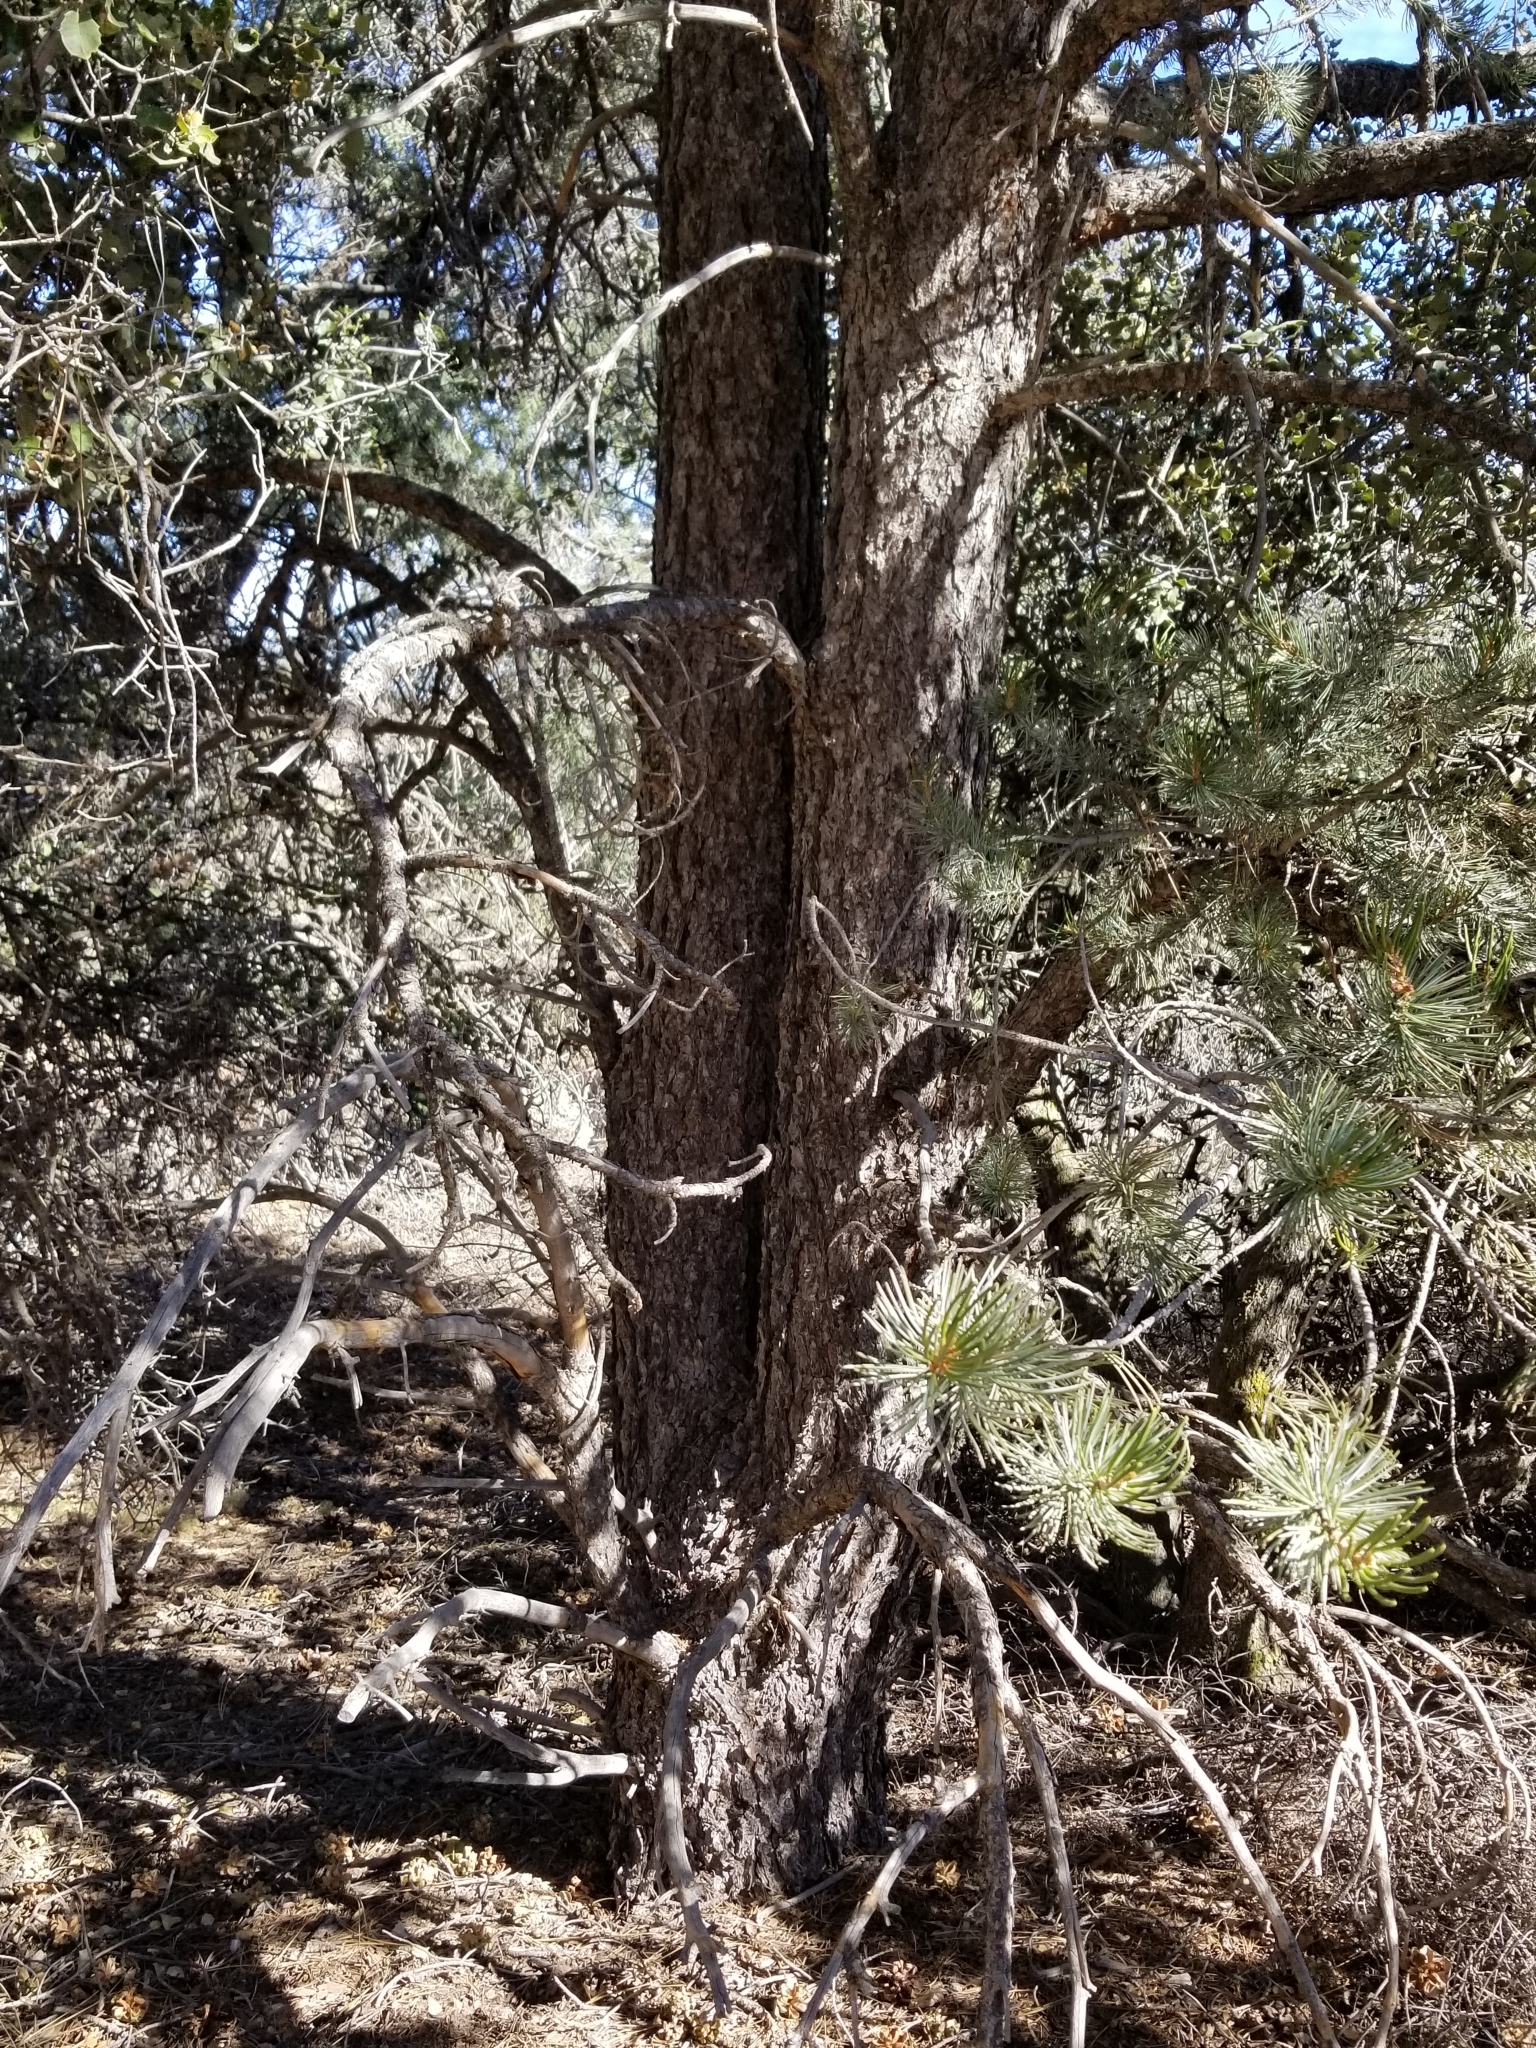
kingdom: Plantae
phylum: Tracheophyta
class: Pinopsida
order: Pinales
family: Pinaceae
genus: Pinus
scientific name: Pinus quadrifolia
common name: Parry pinyon
